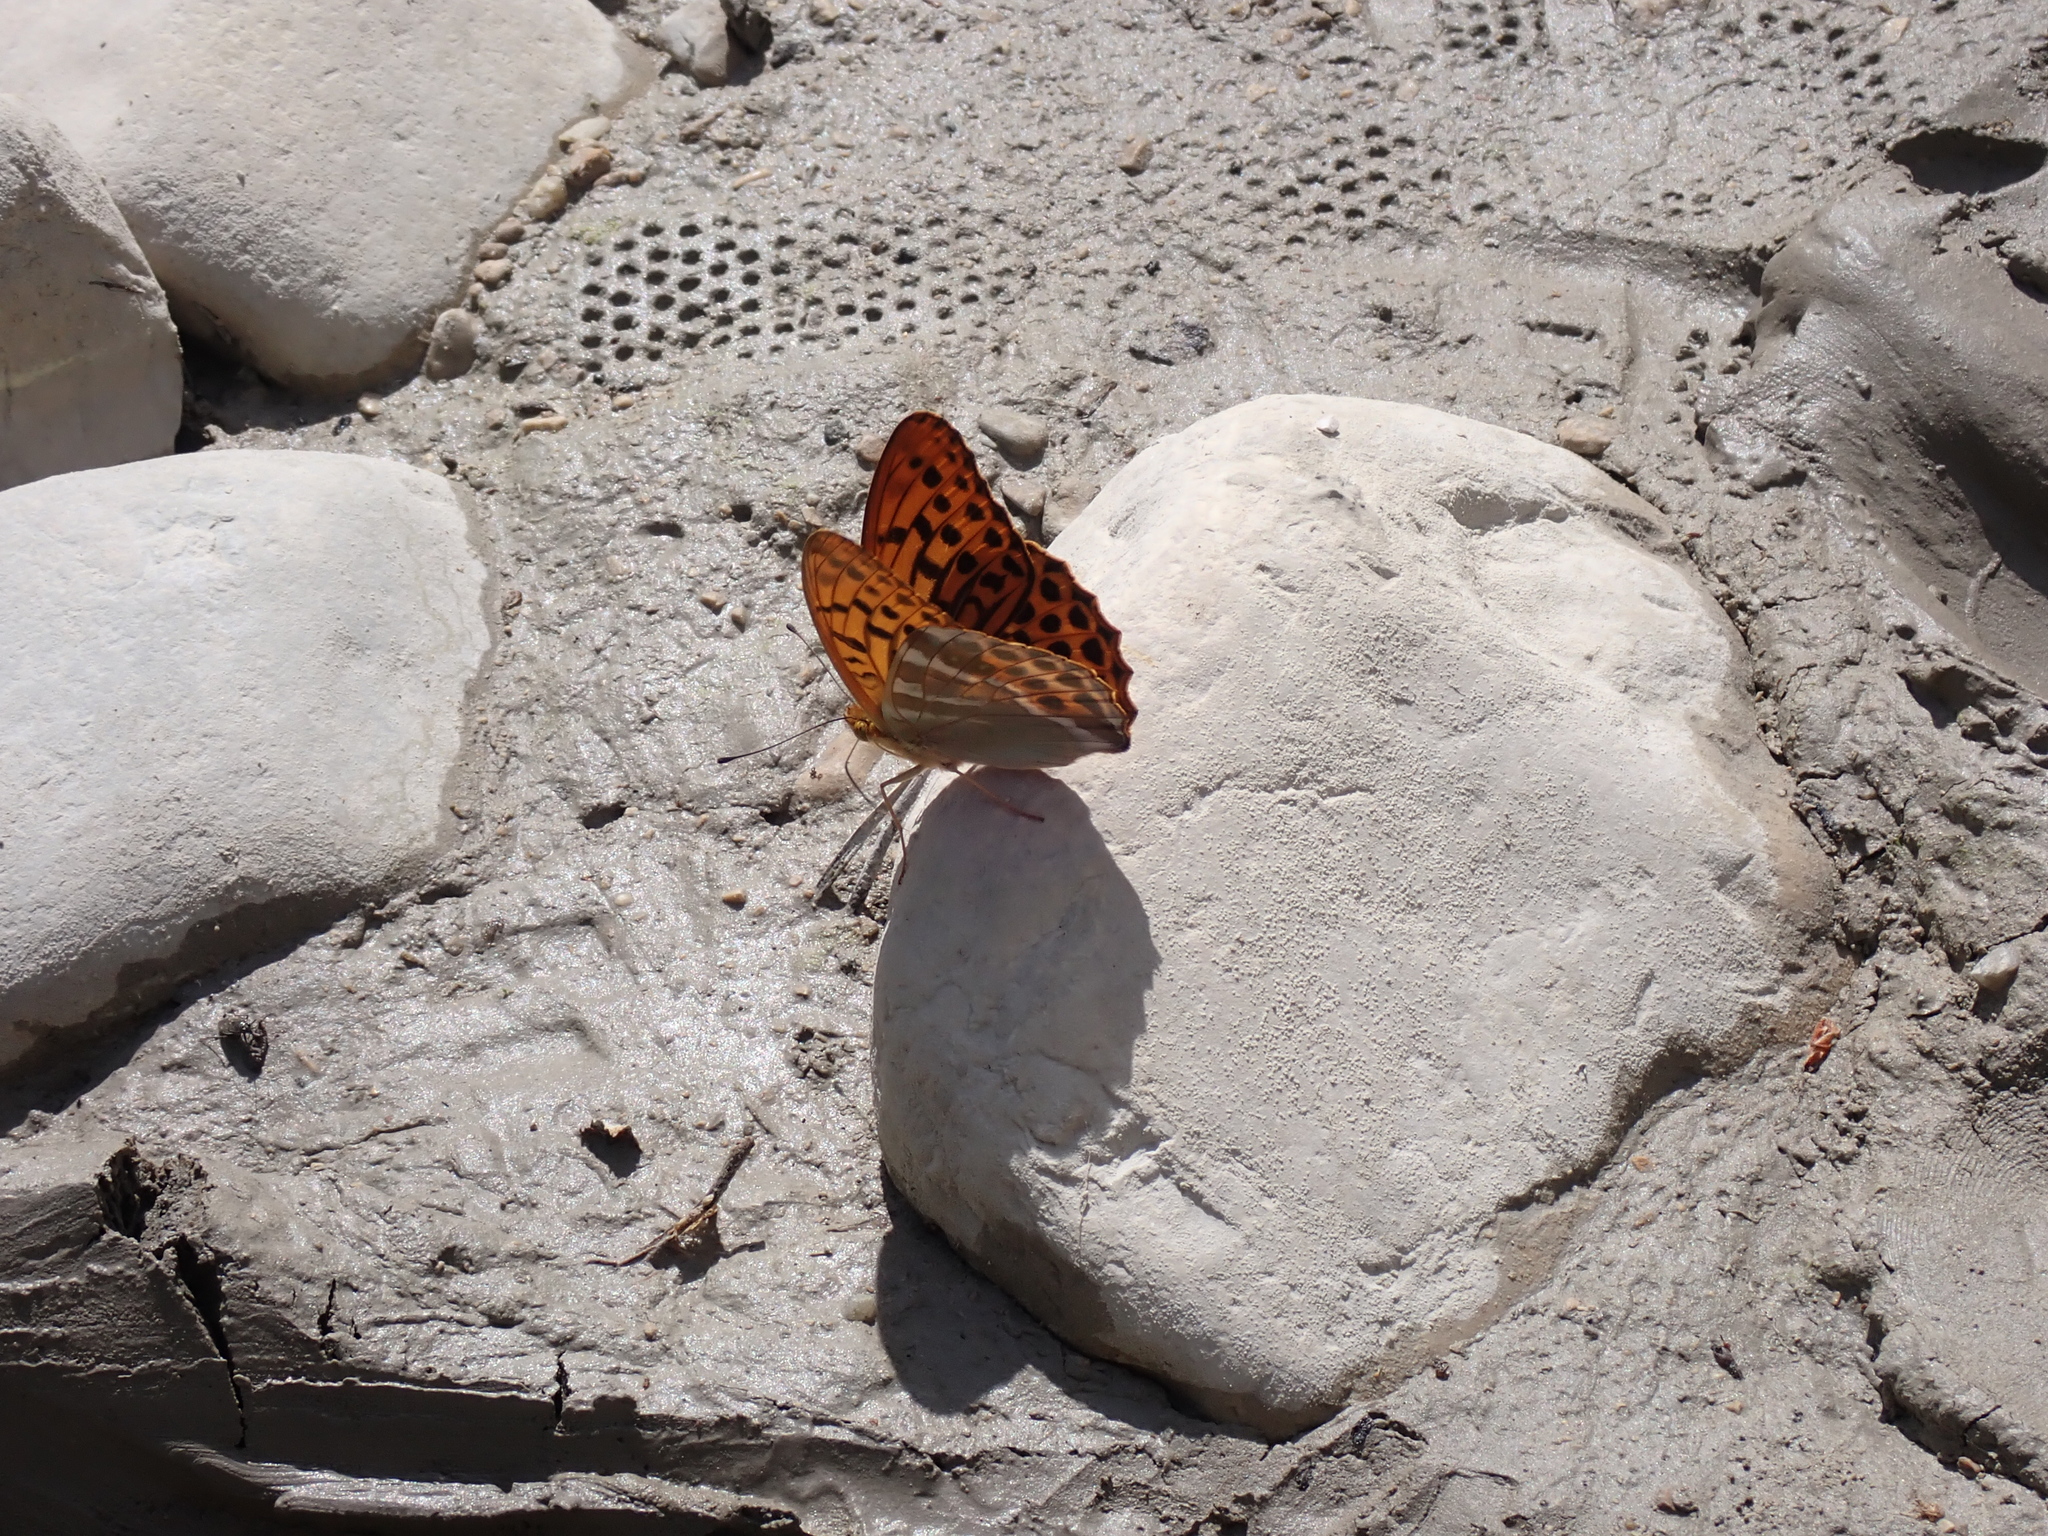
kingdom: Animalia
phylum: Arthropoda
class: Insecta
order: Lepidoptera
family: Nymphalidae
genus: Argynnis
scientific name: Argynnis paphia
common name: Silver-washed fritillary
